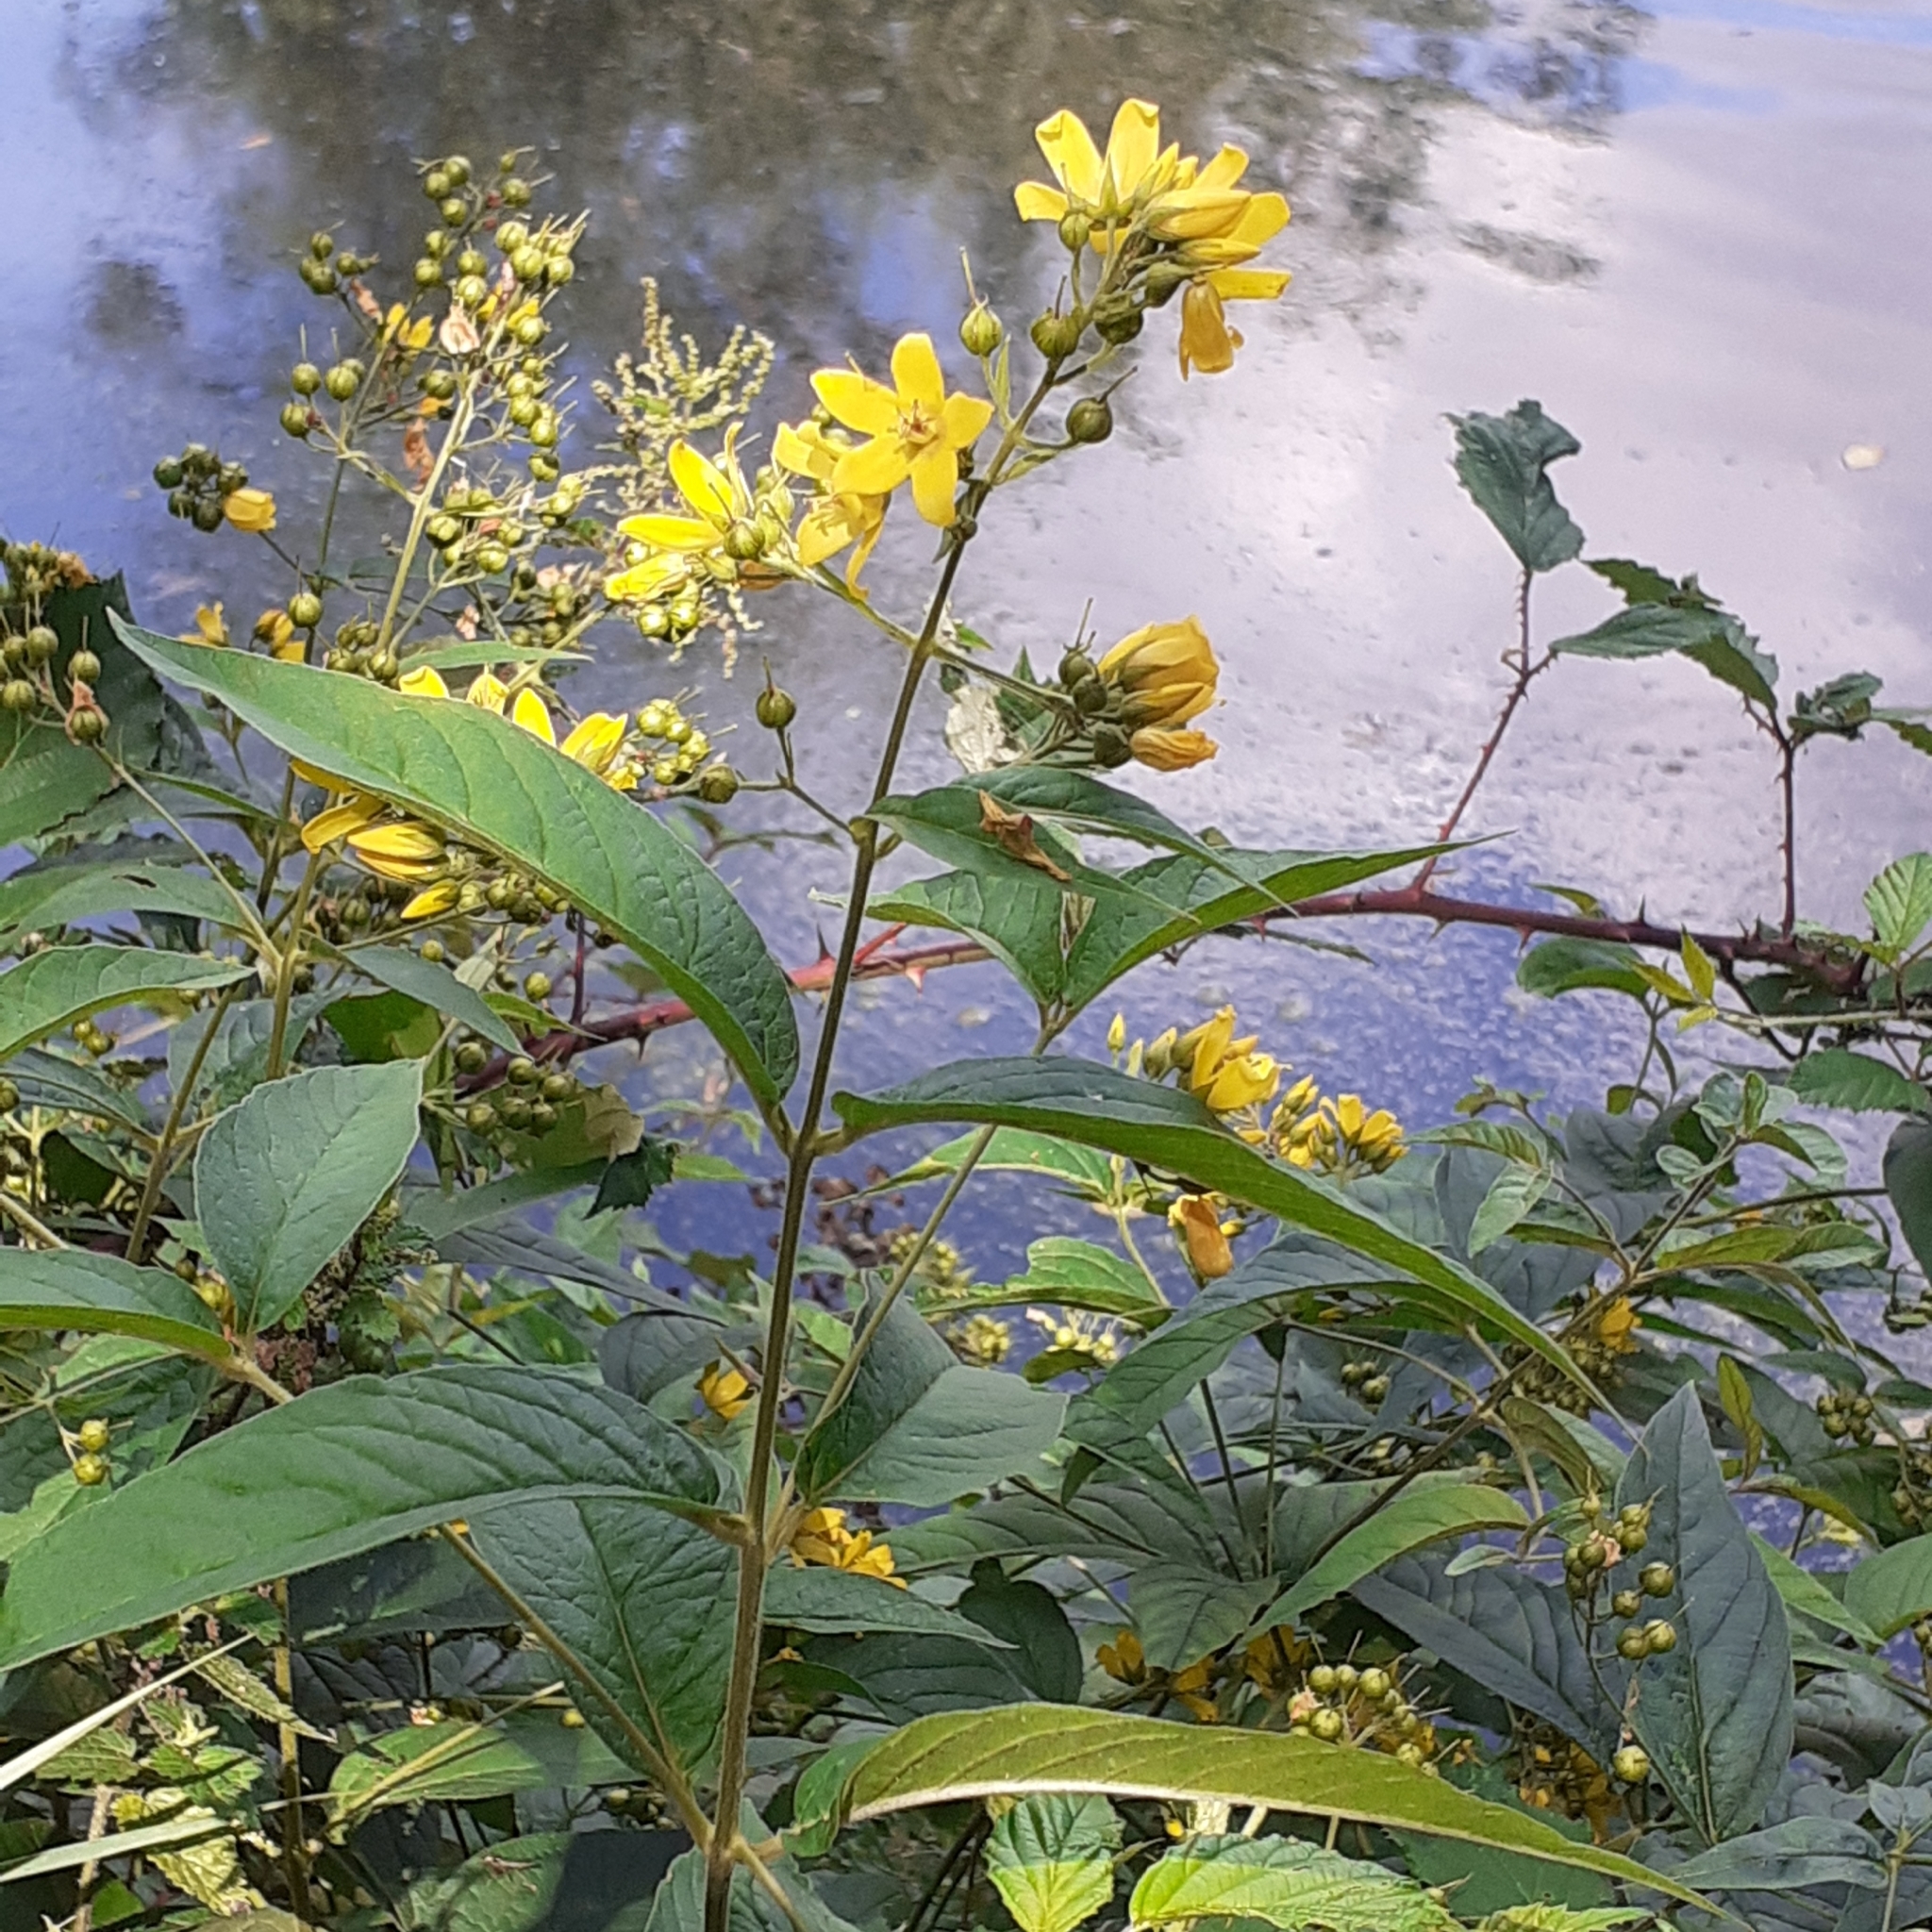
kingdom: Plantae
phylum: Tracheophyta
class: Magnoliopsida
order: Ericales
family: Primulaceae
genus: Lysimachia
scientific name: Lysimachia vulgaris
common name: Yellow loosestrife
